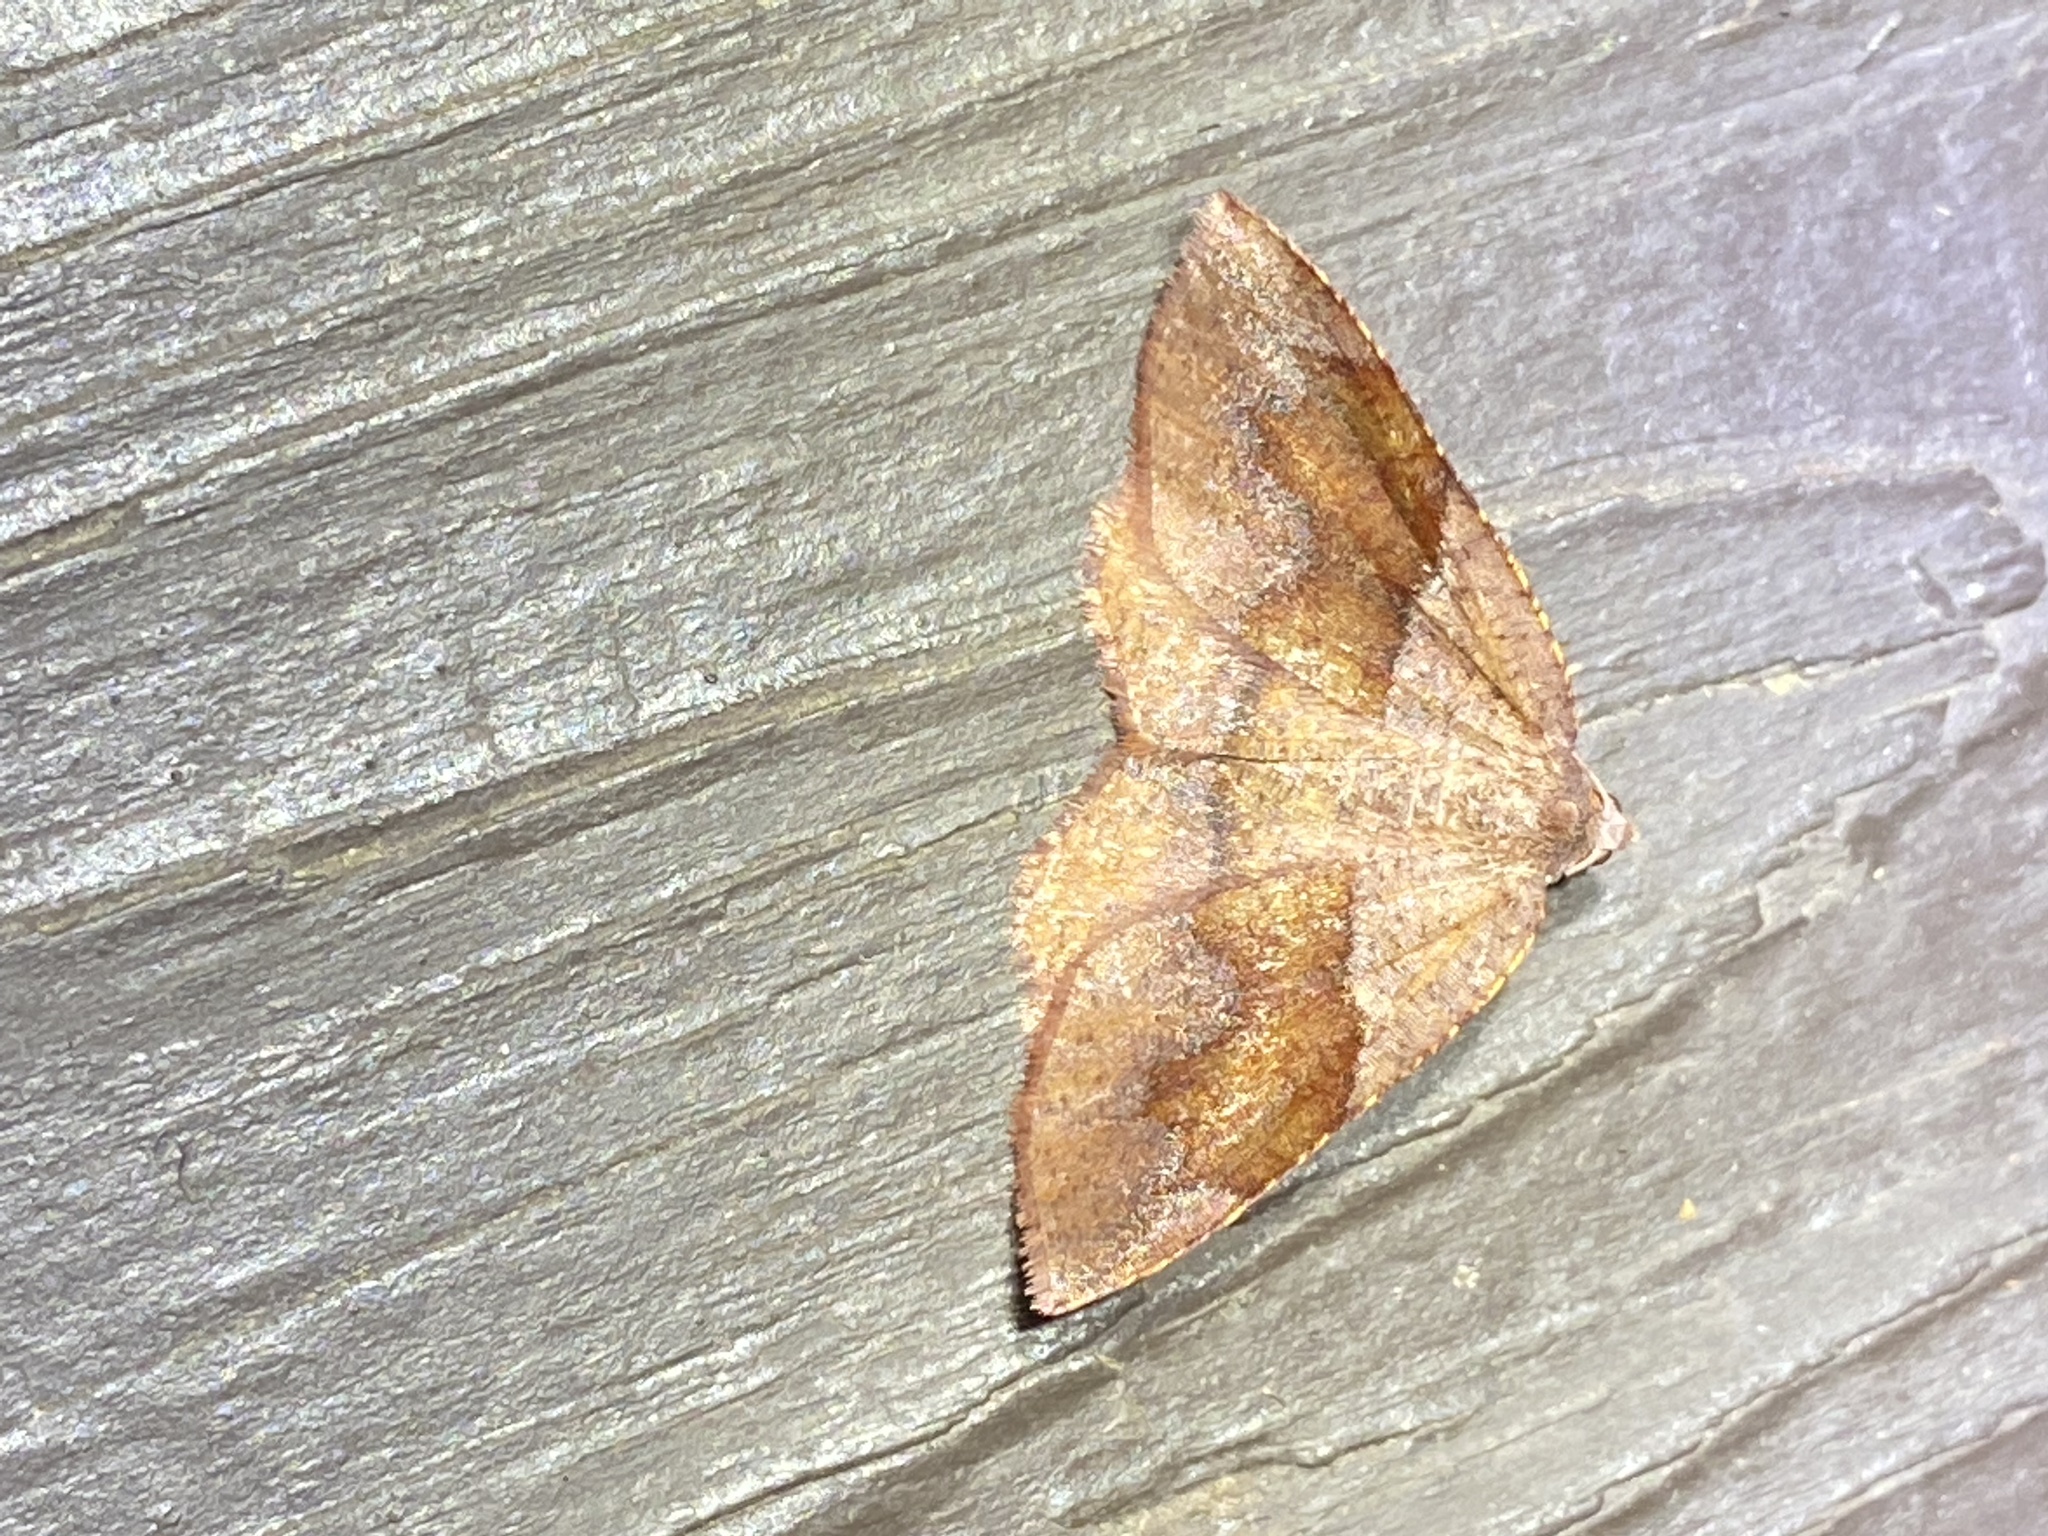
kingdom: Animalia
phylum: Arthropoda
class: Insecta
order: Lepidoptera
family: Geometridae
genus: Plagodis
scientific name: Plagodis pulveraria
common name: Barred umber
